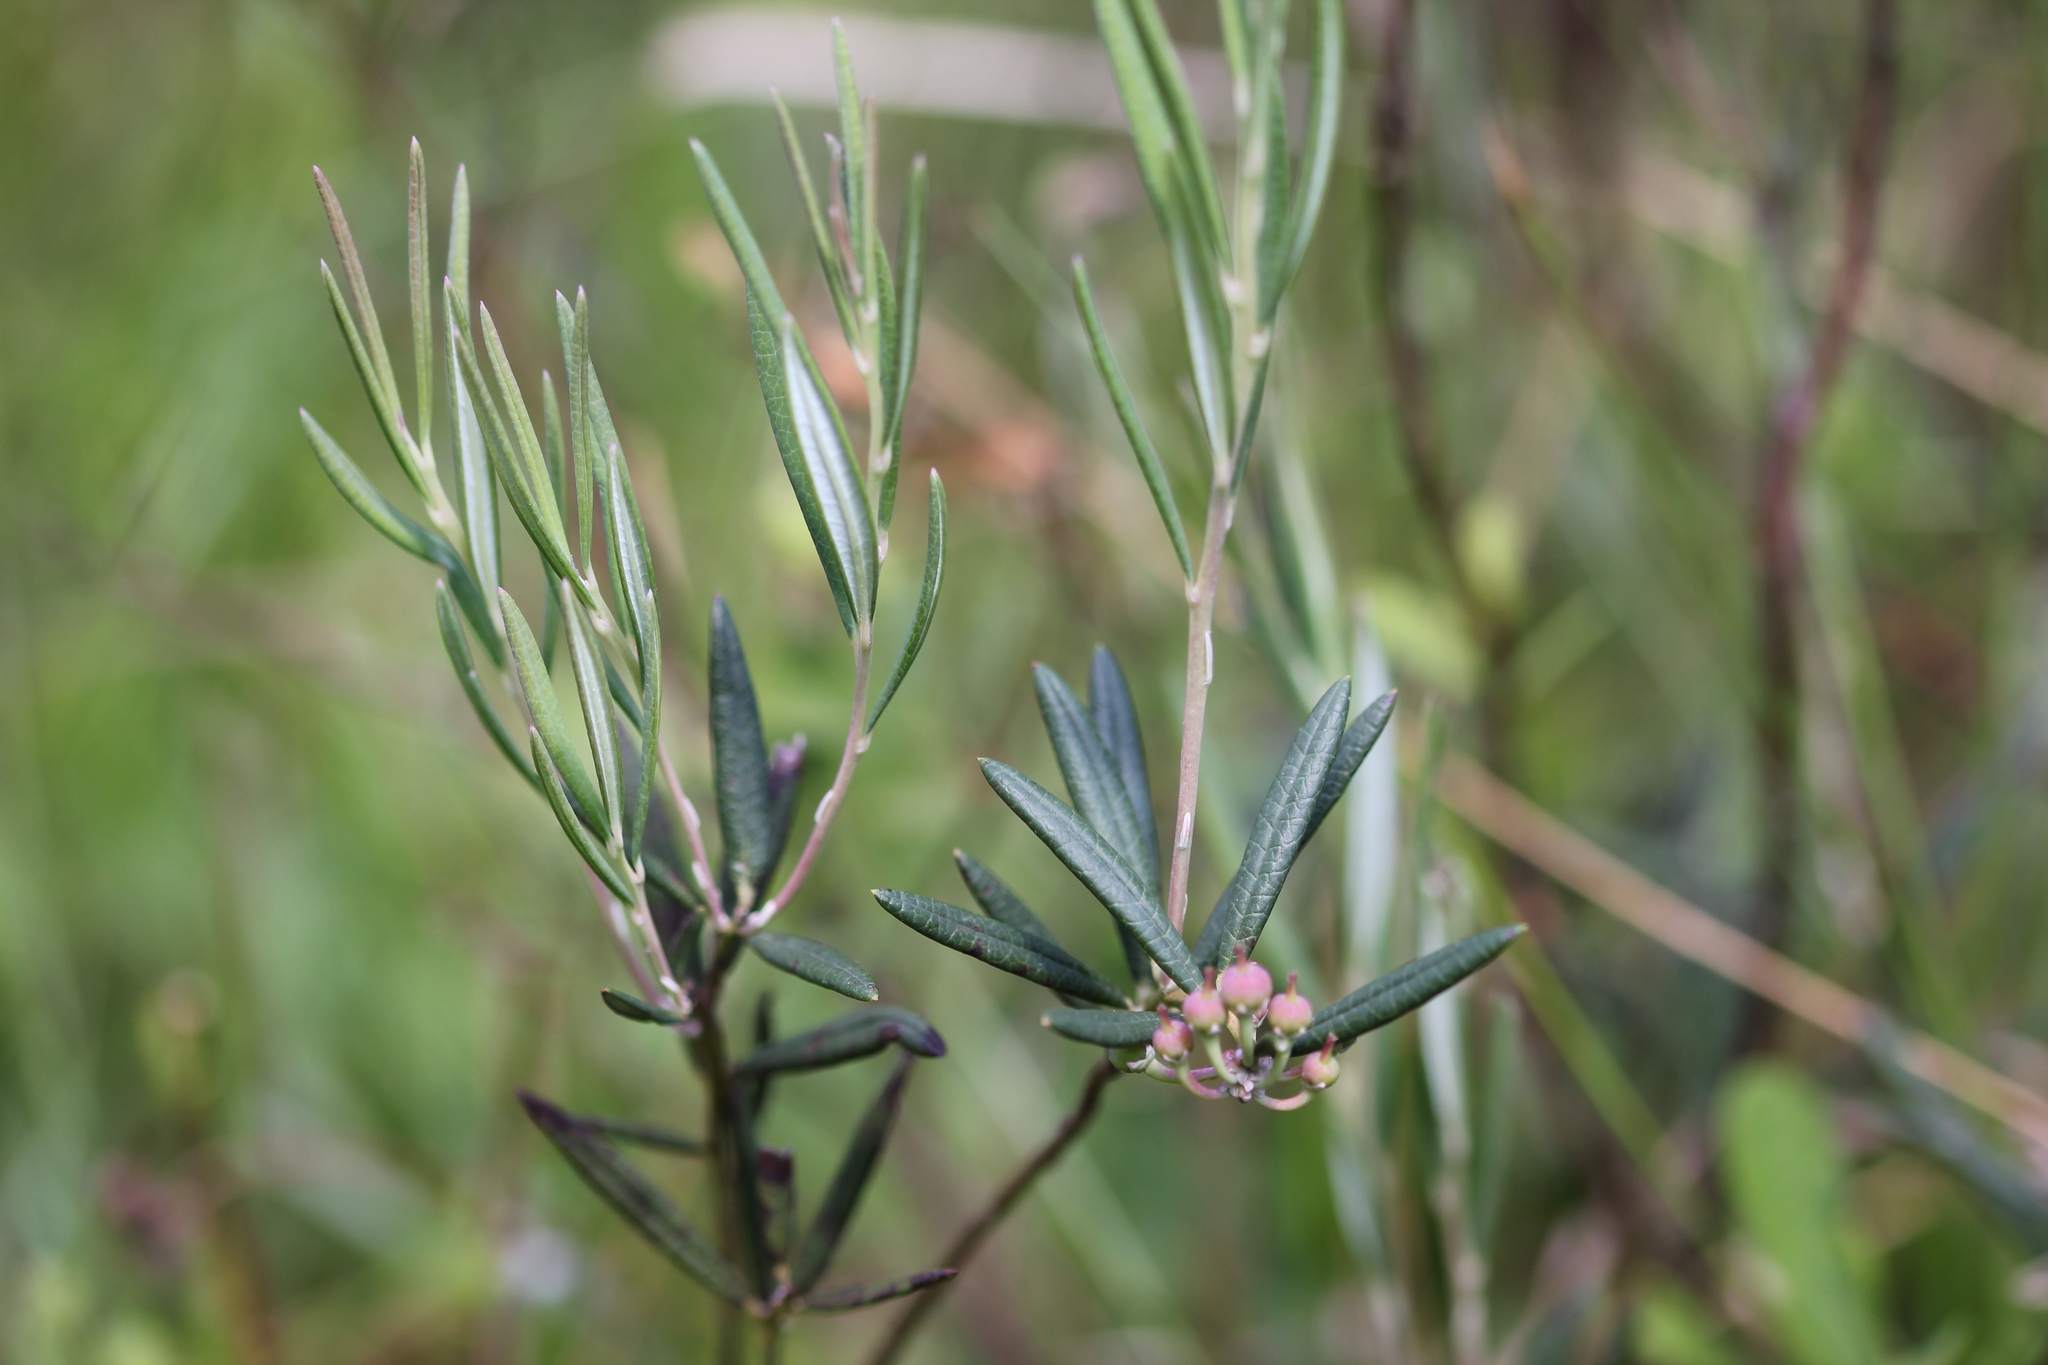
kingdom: Plantae
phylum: Tracheophyta
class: Magnoliopsida
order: Ericales
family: Ericaceae
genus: Andromeda
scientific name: Andromeda polifolia
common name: Bog-rosemary
